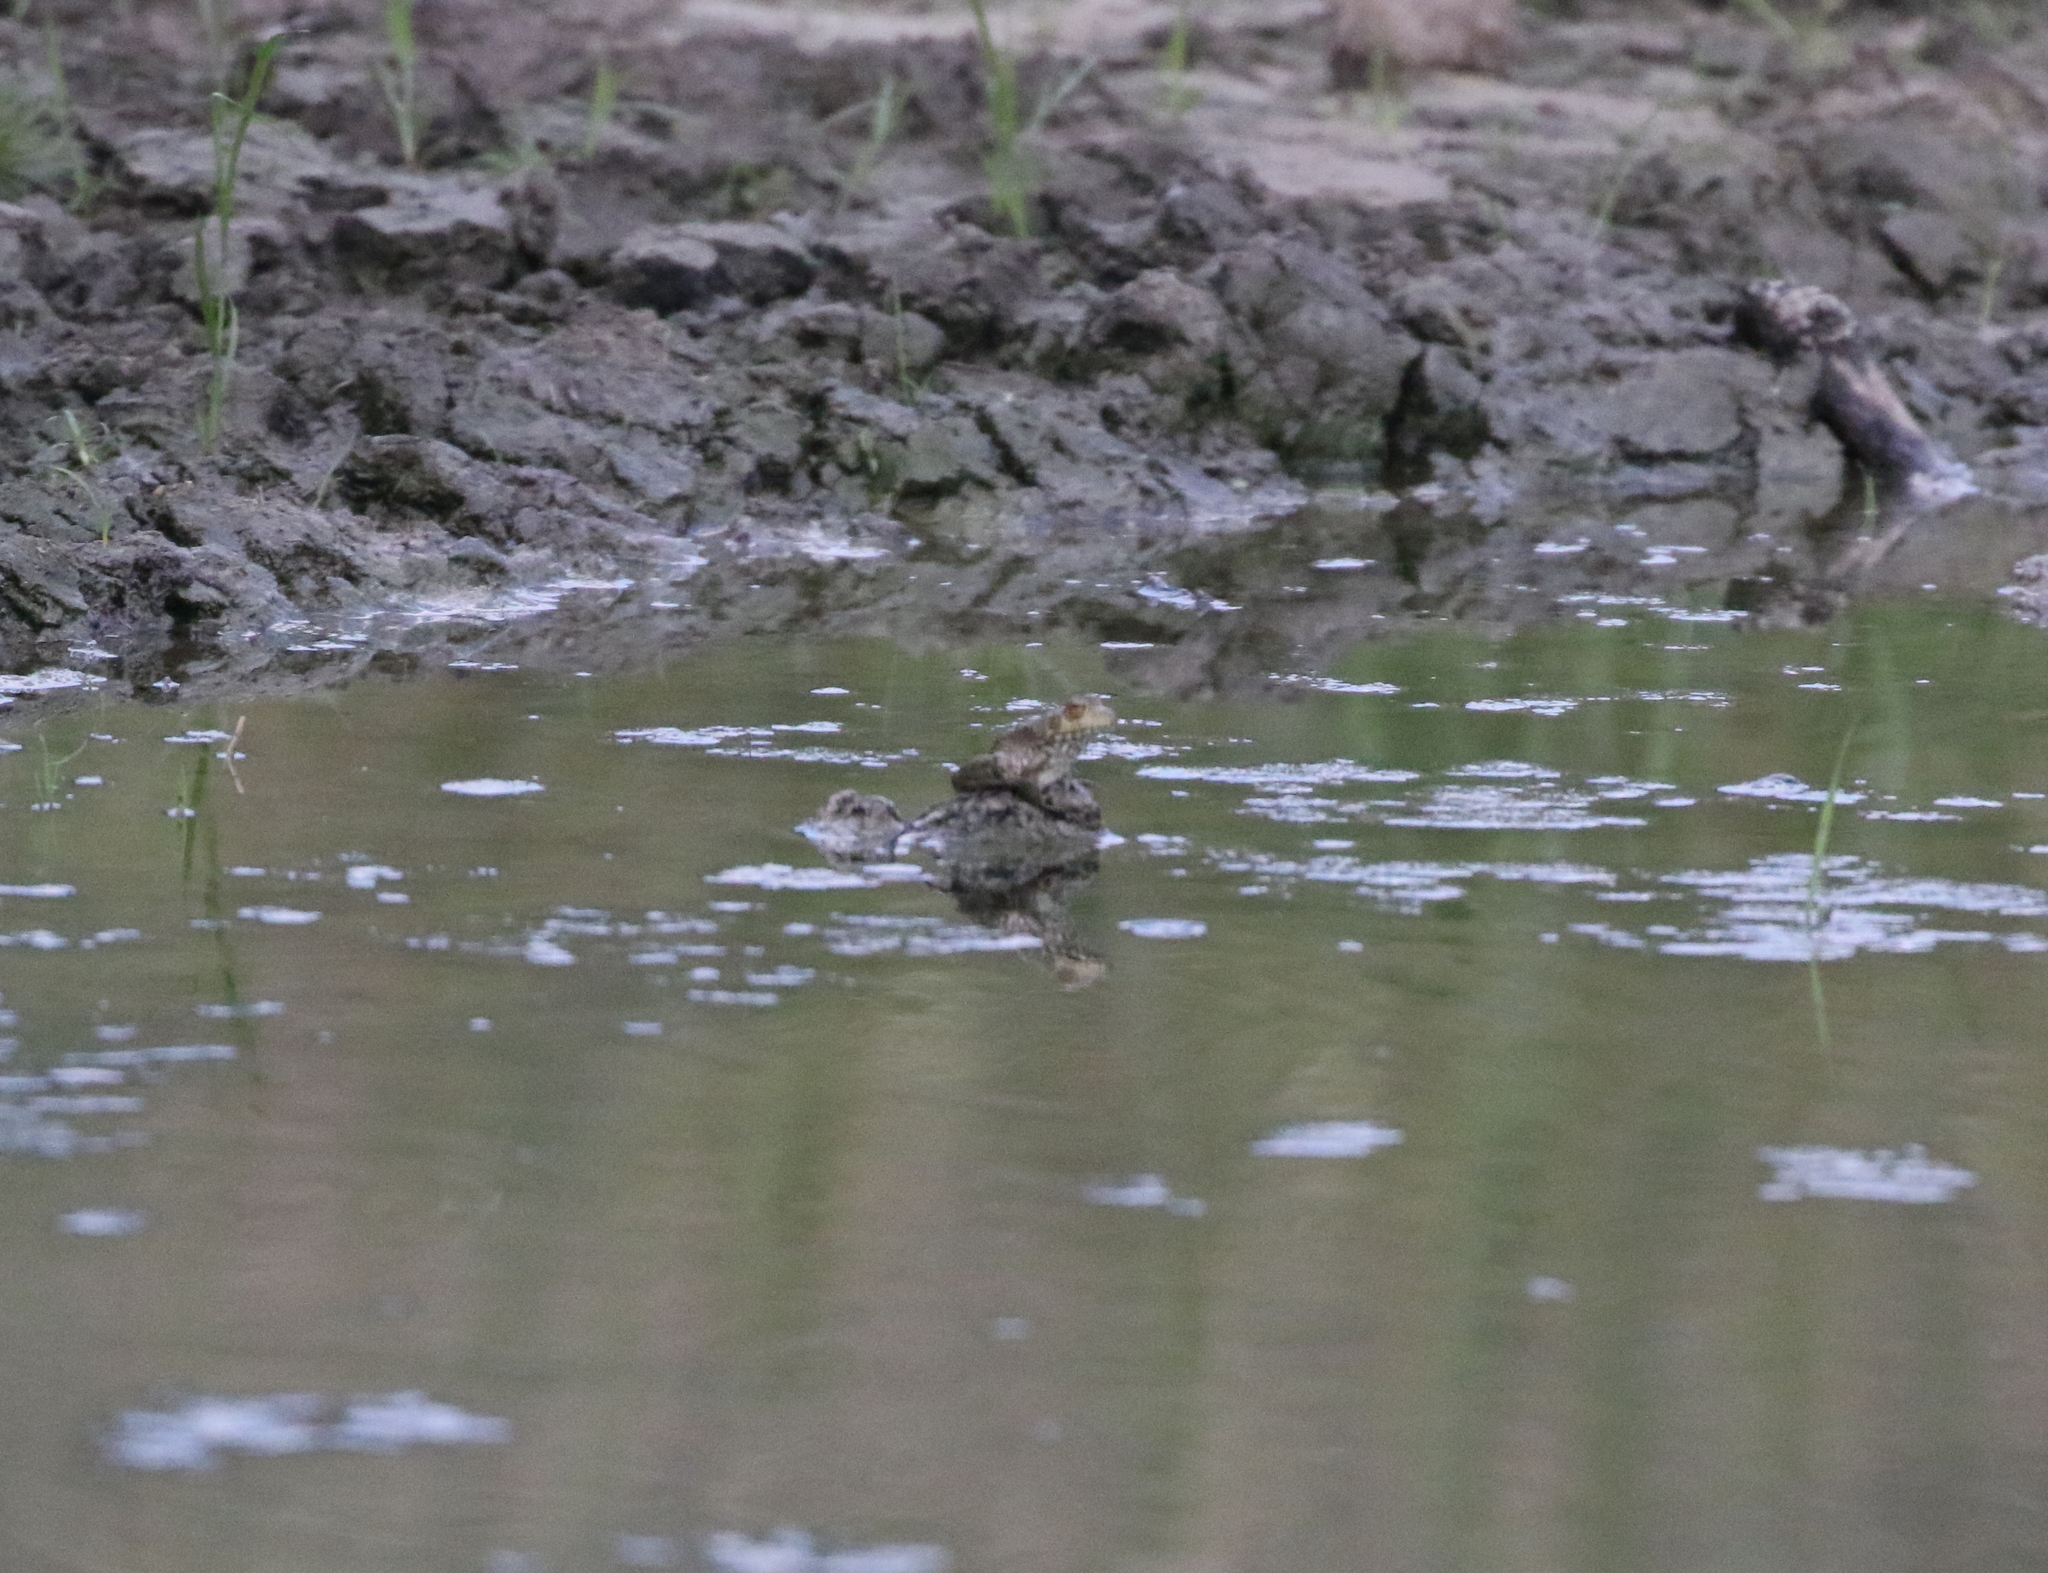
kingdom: Animalia
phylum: Chordata
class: Amphibia
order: Anura
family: Ranidae
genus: Lithobates
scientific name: Lithobates catesbeianus
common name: American bullfrog
